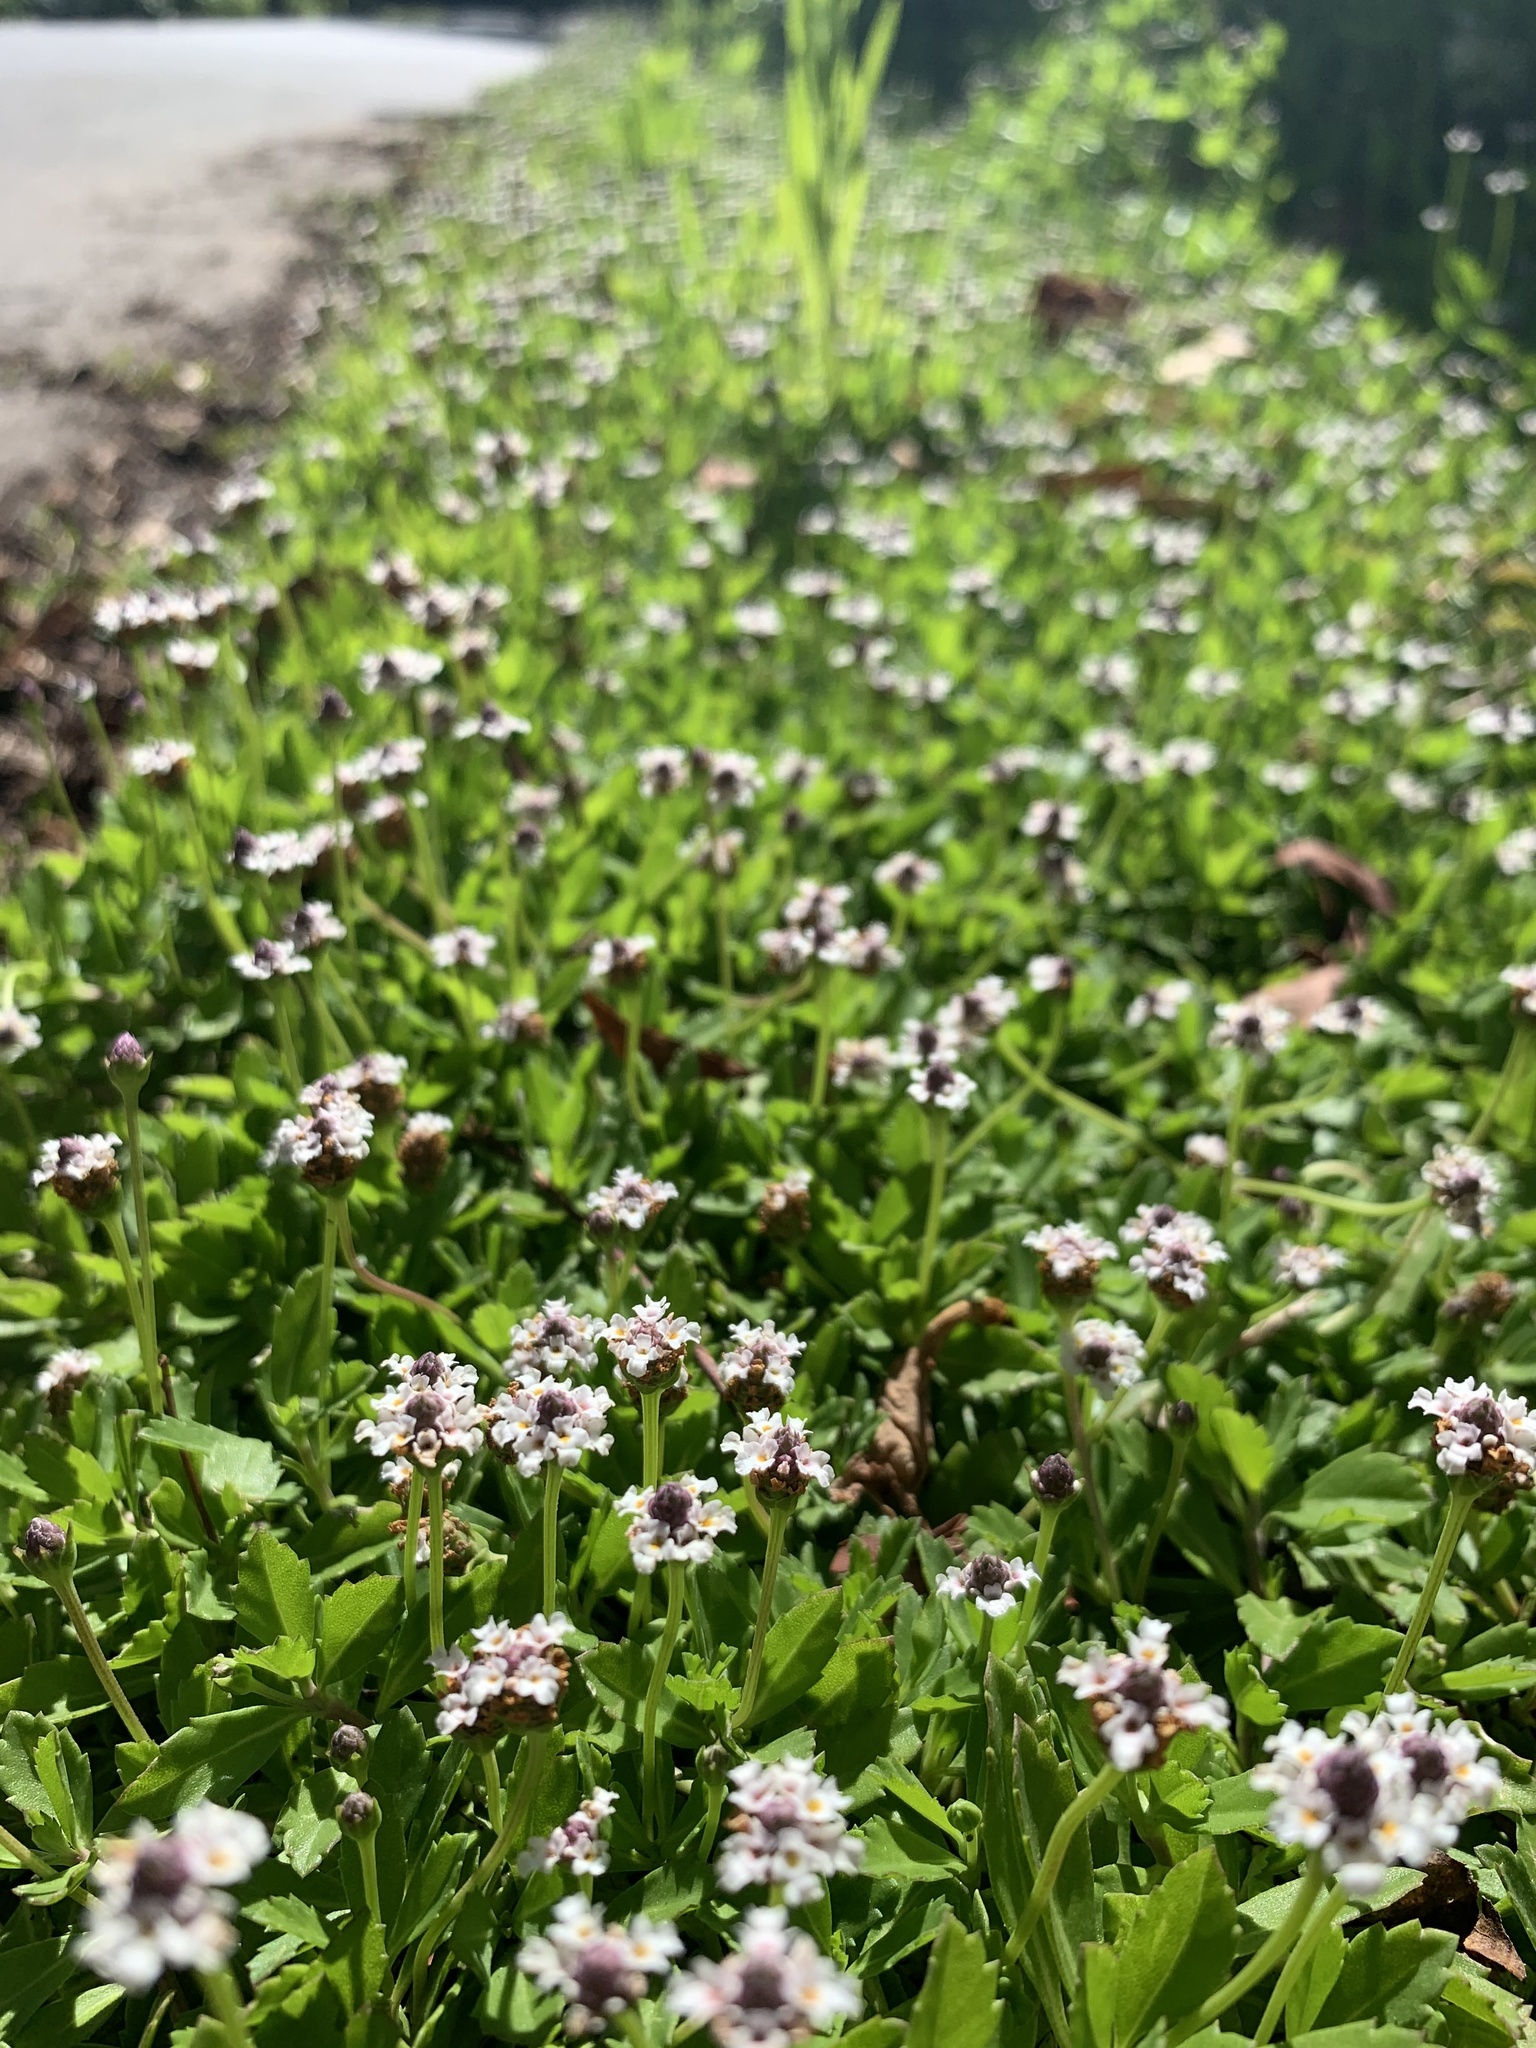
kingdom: Plantae
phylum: Tracheophyta
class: Magnoliopsida
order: Lamiales
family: Verbenaceae
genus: Phyla
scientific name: Phyla nodiflora
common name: Frogfruit
